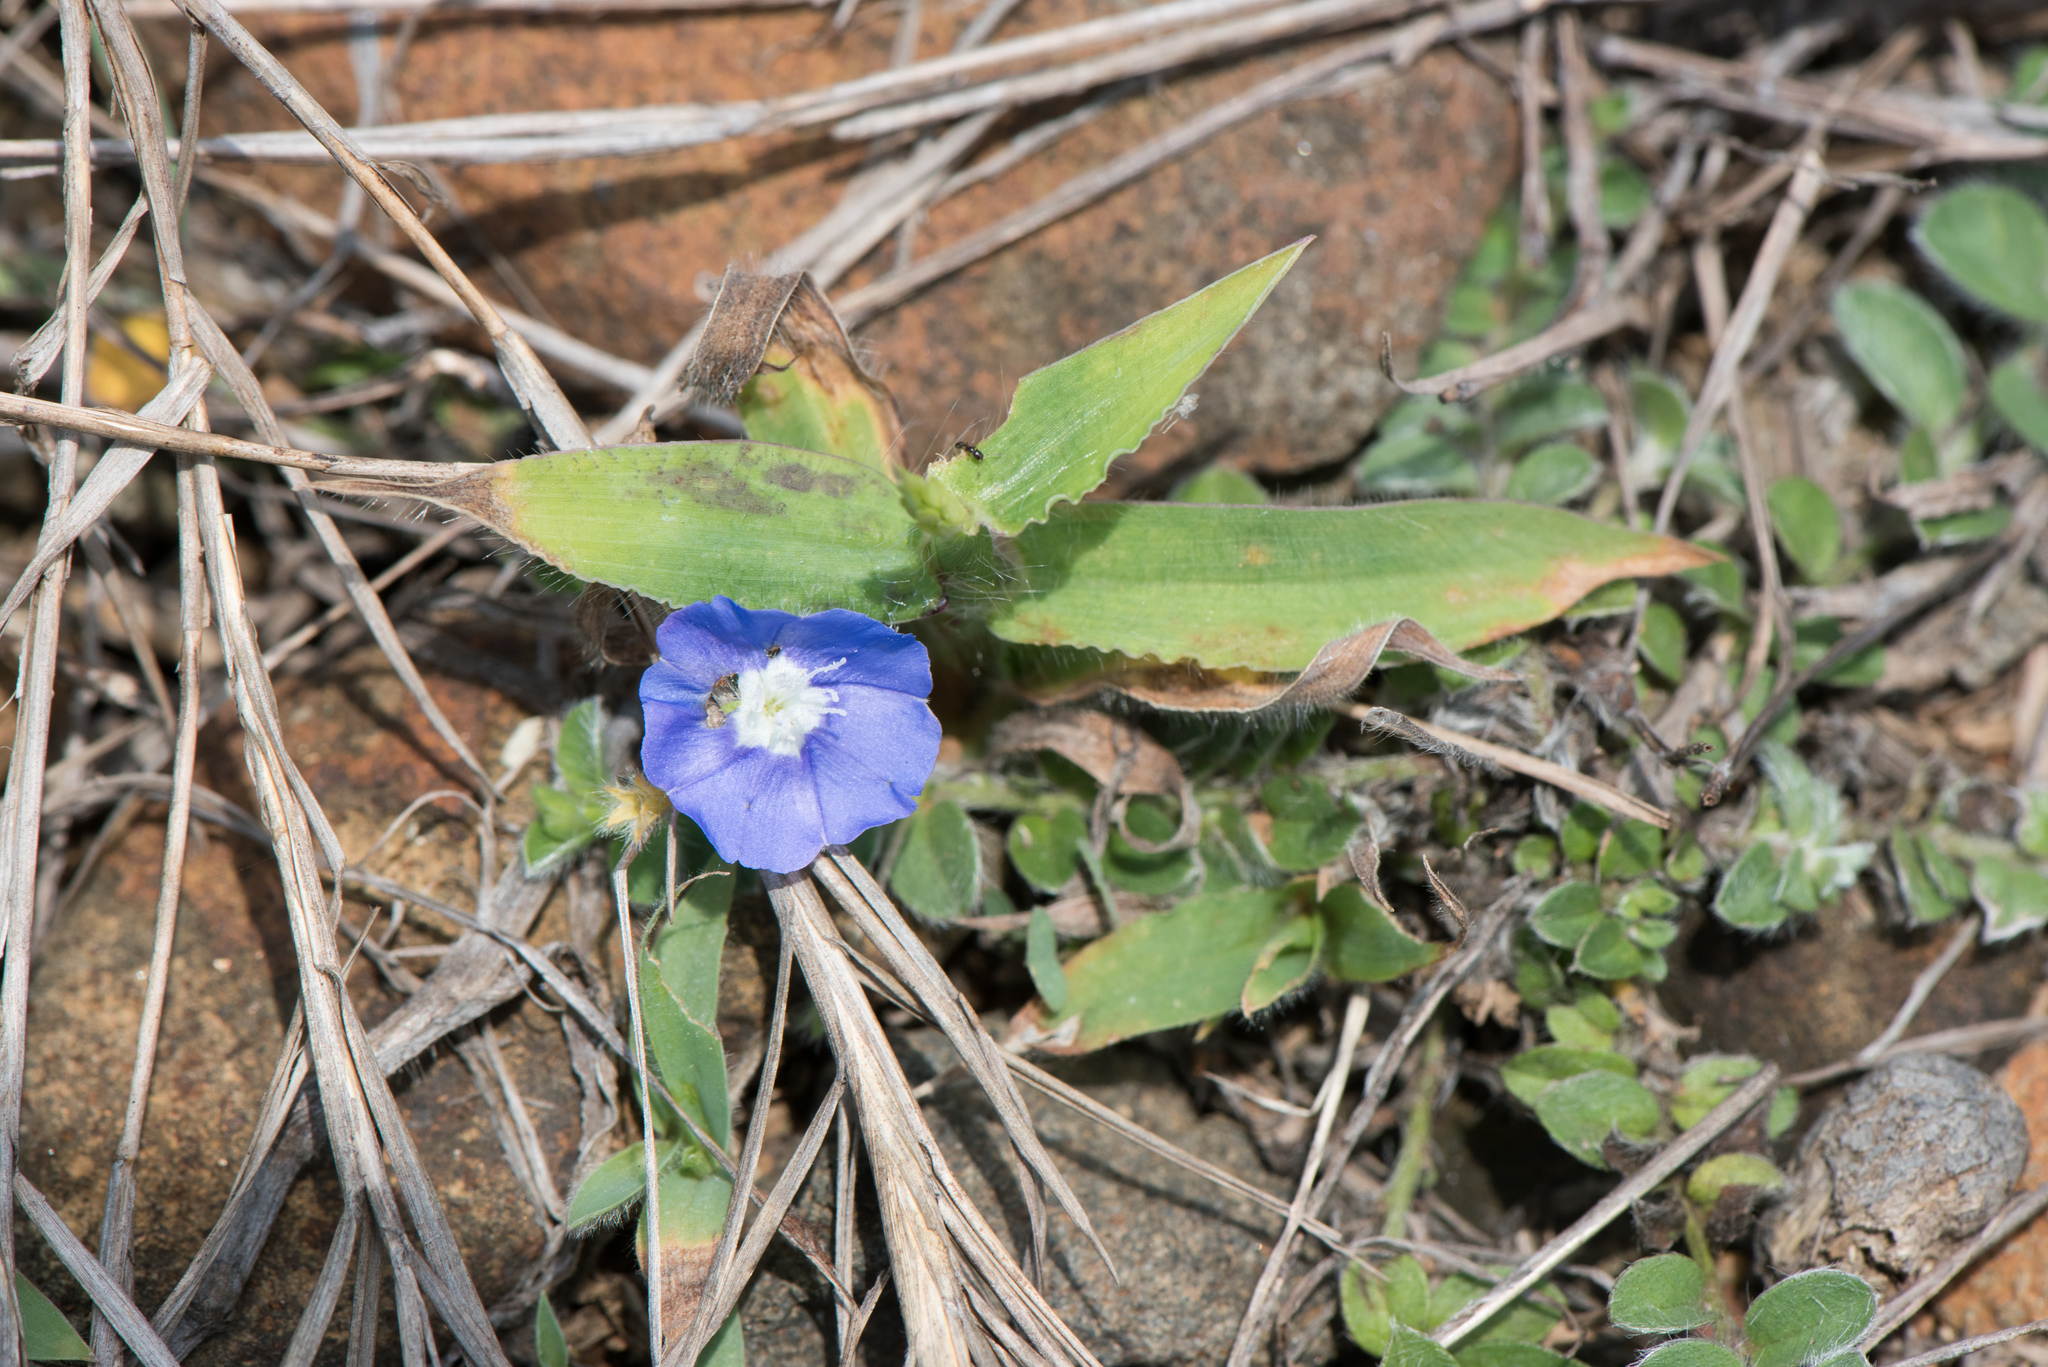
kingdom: Plantae
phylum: Tracheophyta
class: Magnoliopsida
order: Solanales
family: Convolvulaceae
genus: Evolvulus
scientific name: Evolvulus alsinoides
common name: Slender dwarf morning-glory
